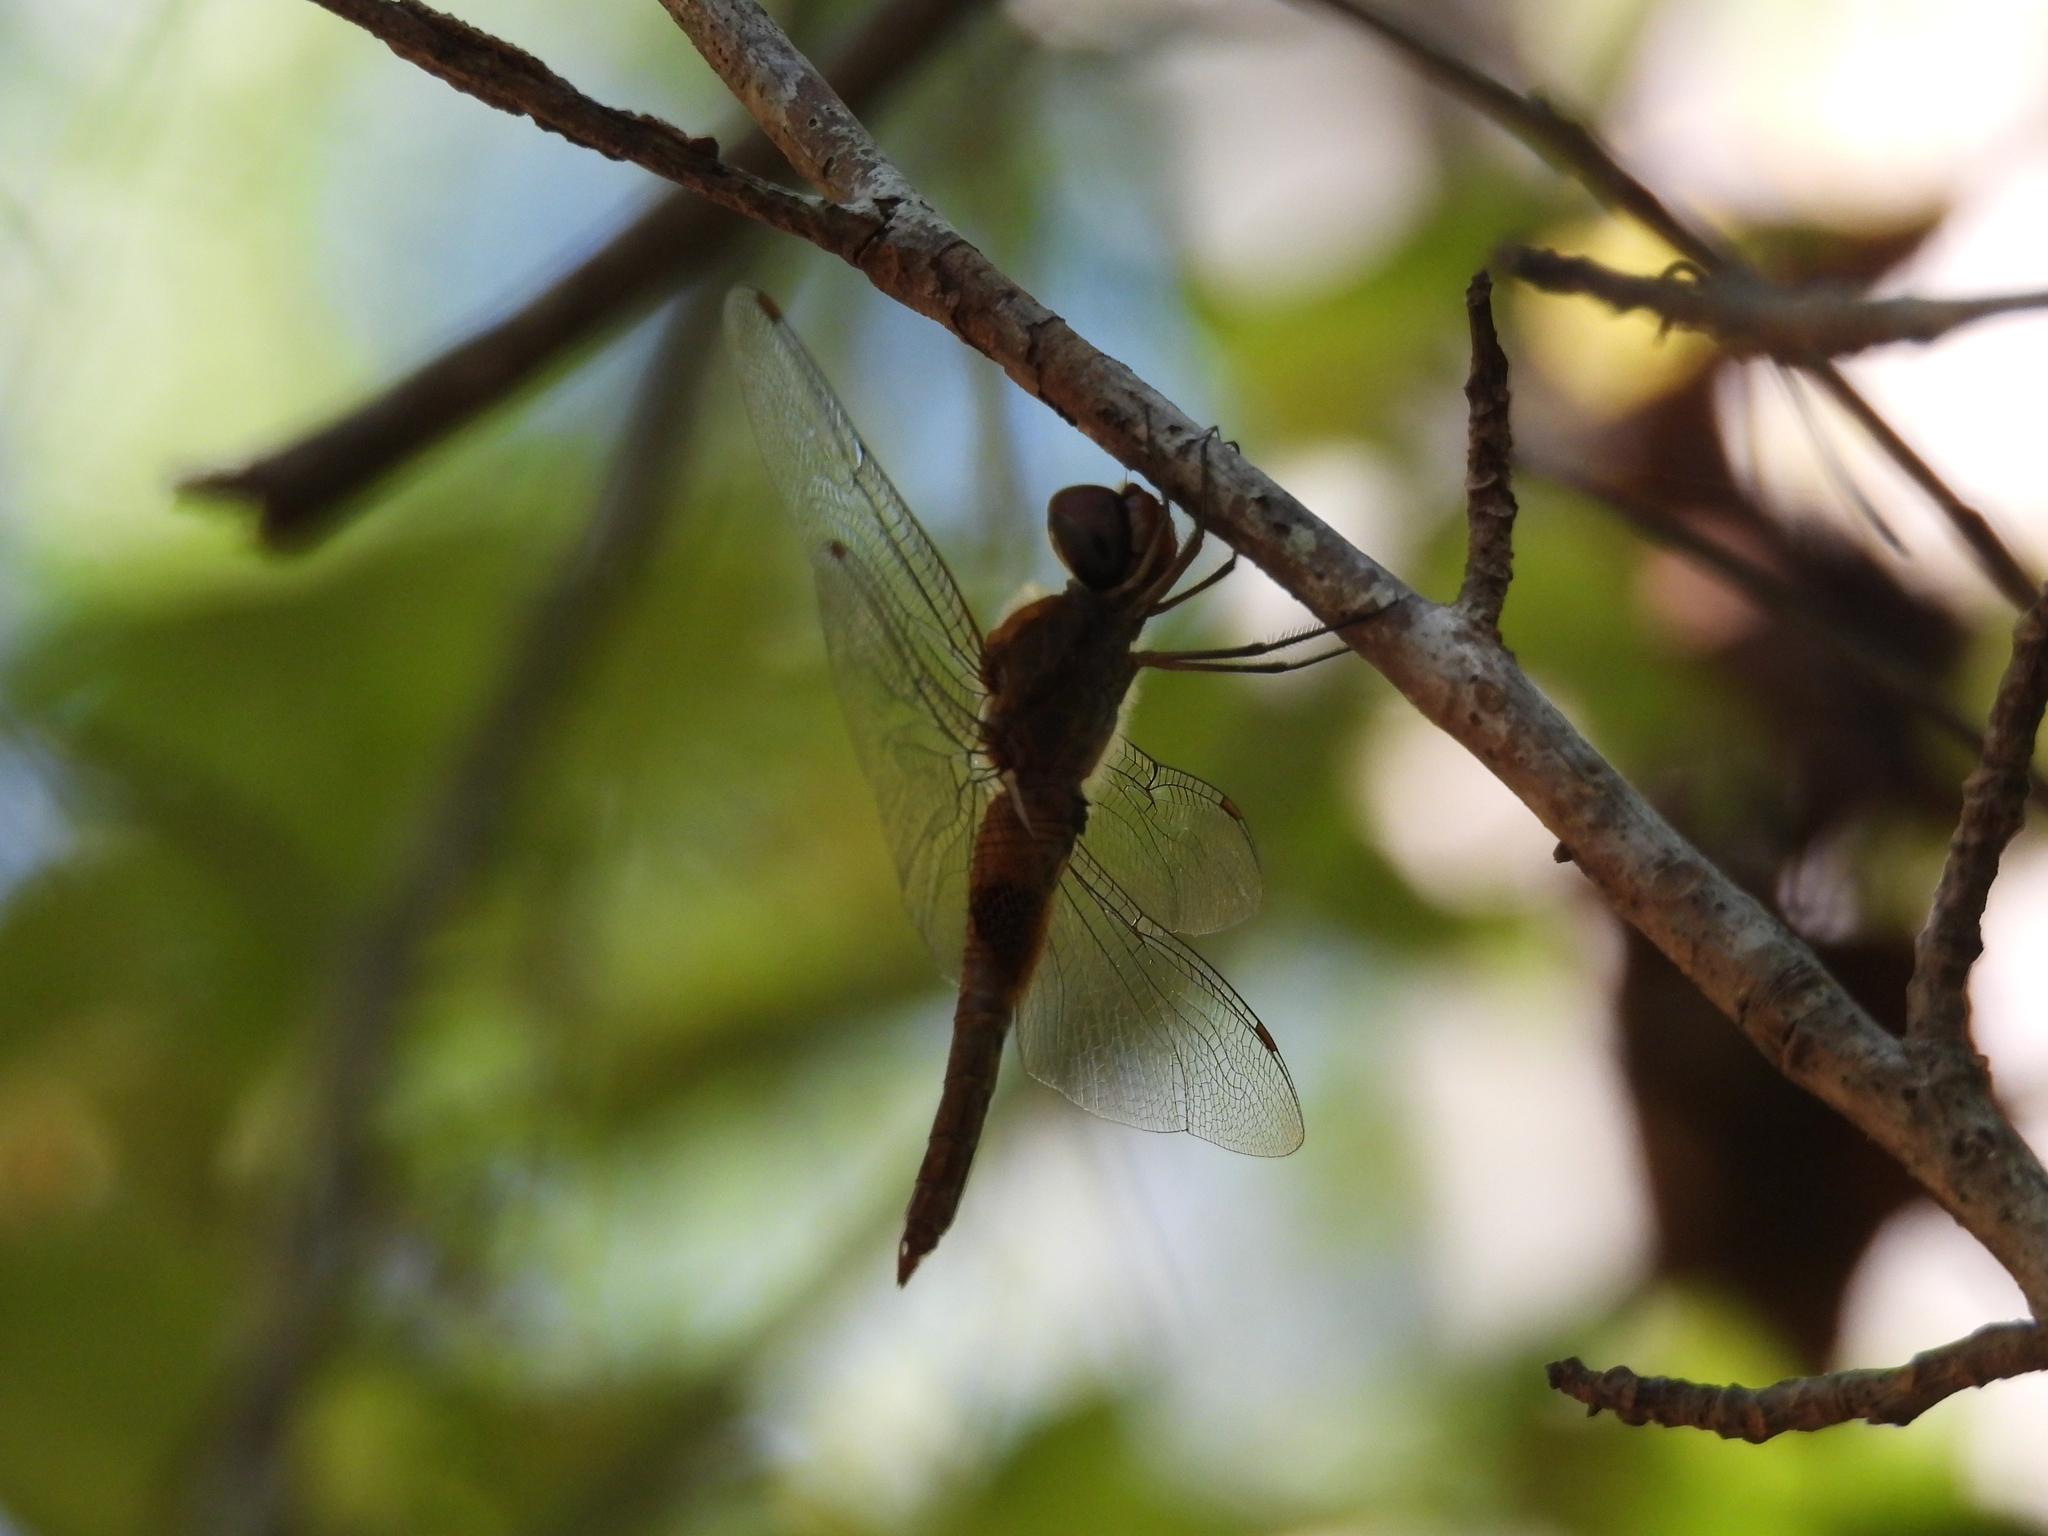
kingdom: Animalia
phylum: Arthropoda
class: Insecta
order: Odonata
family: Libellulidae
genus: Pantala
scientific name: Pantala hymenaea
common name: Spot-winged glider
